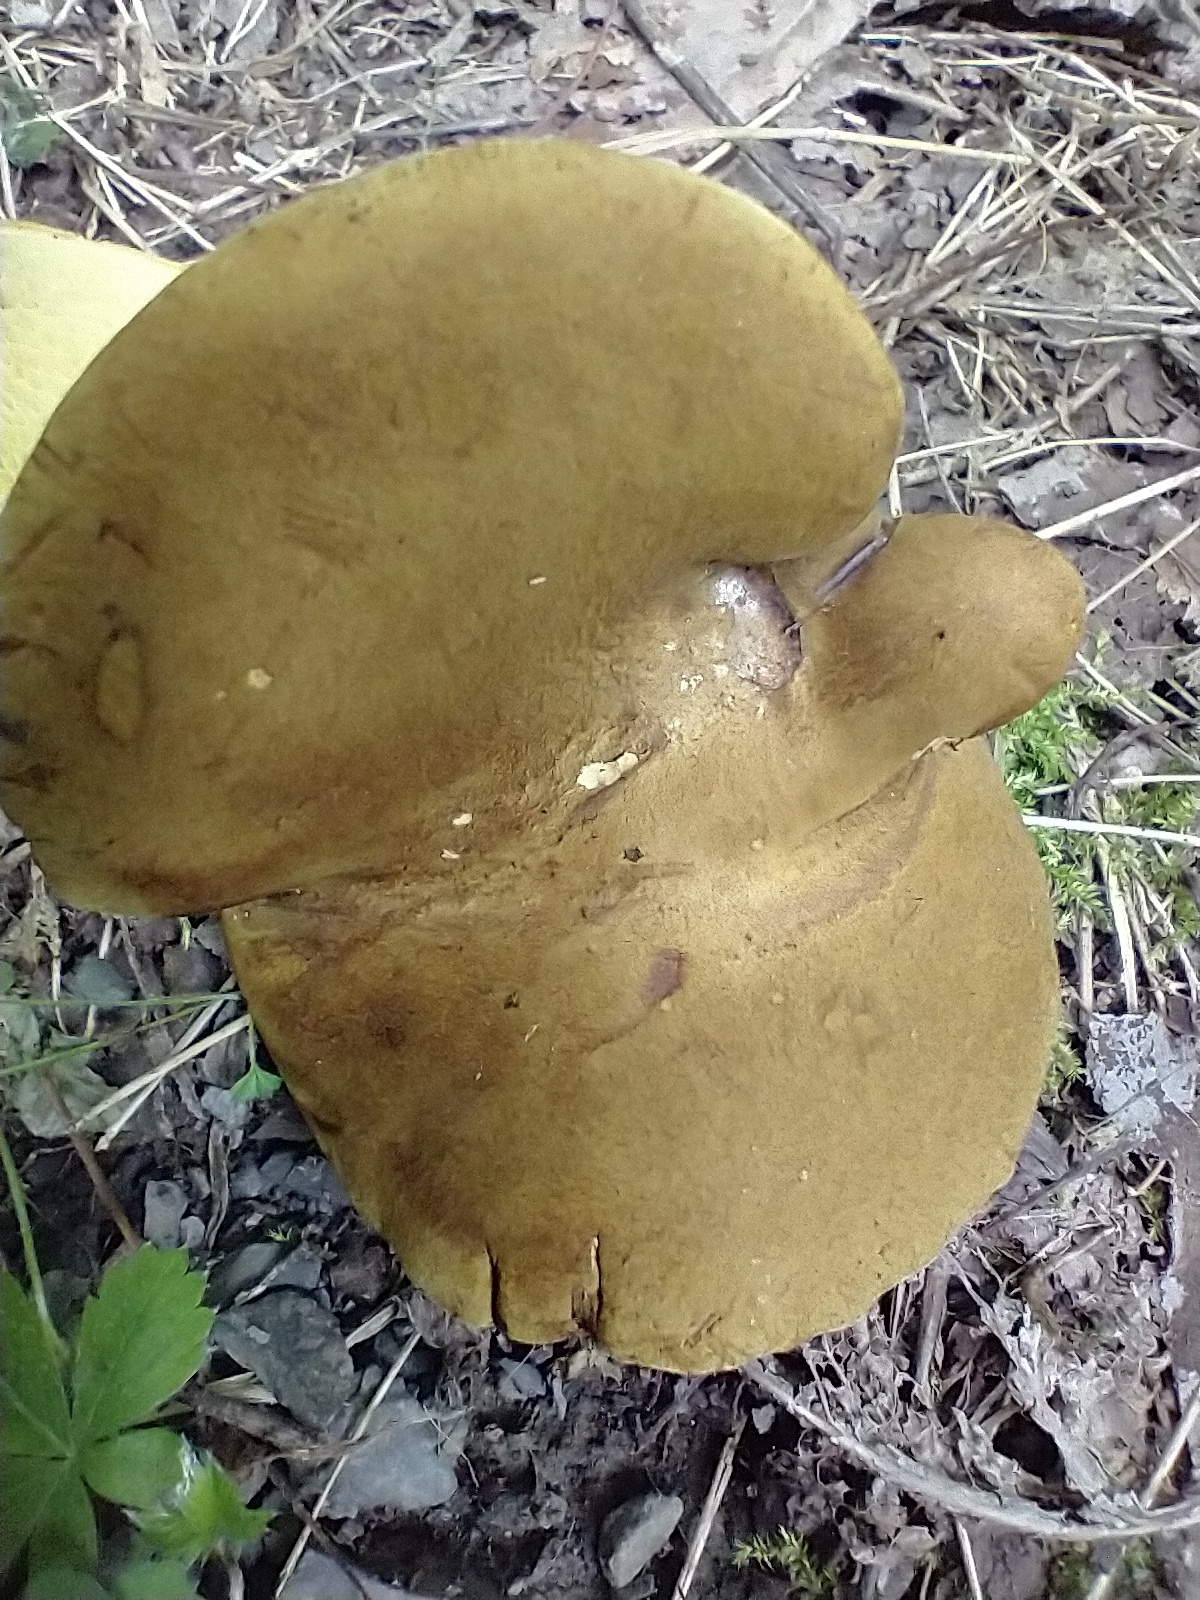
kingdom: Fungi
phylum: Basidiomycota
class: Agaricomycetes
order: Boletales
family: Boletinellaceae
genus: Boletinellus
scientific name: Boletinellus merulioides
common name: Ash tree bolete
